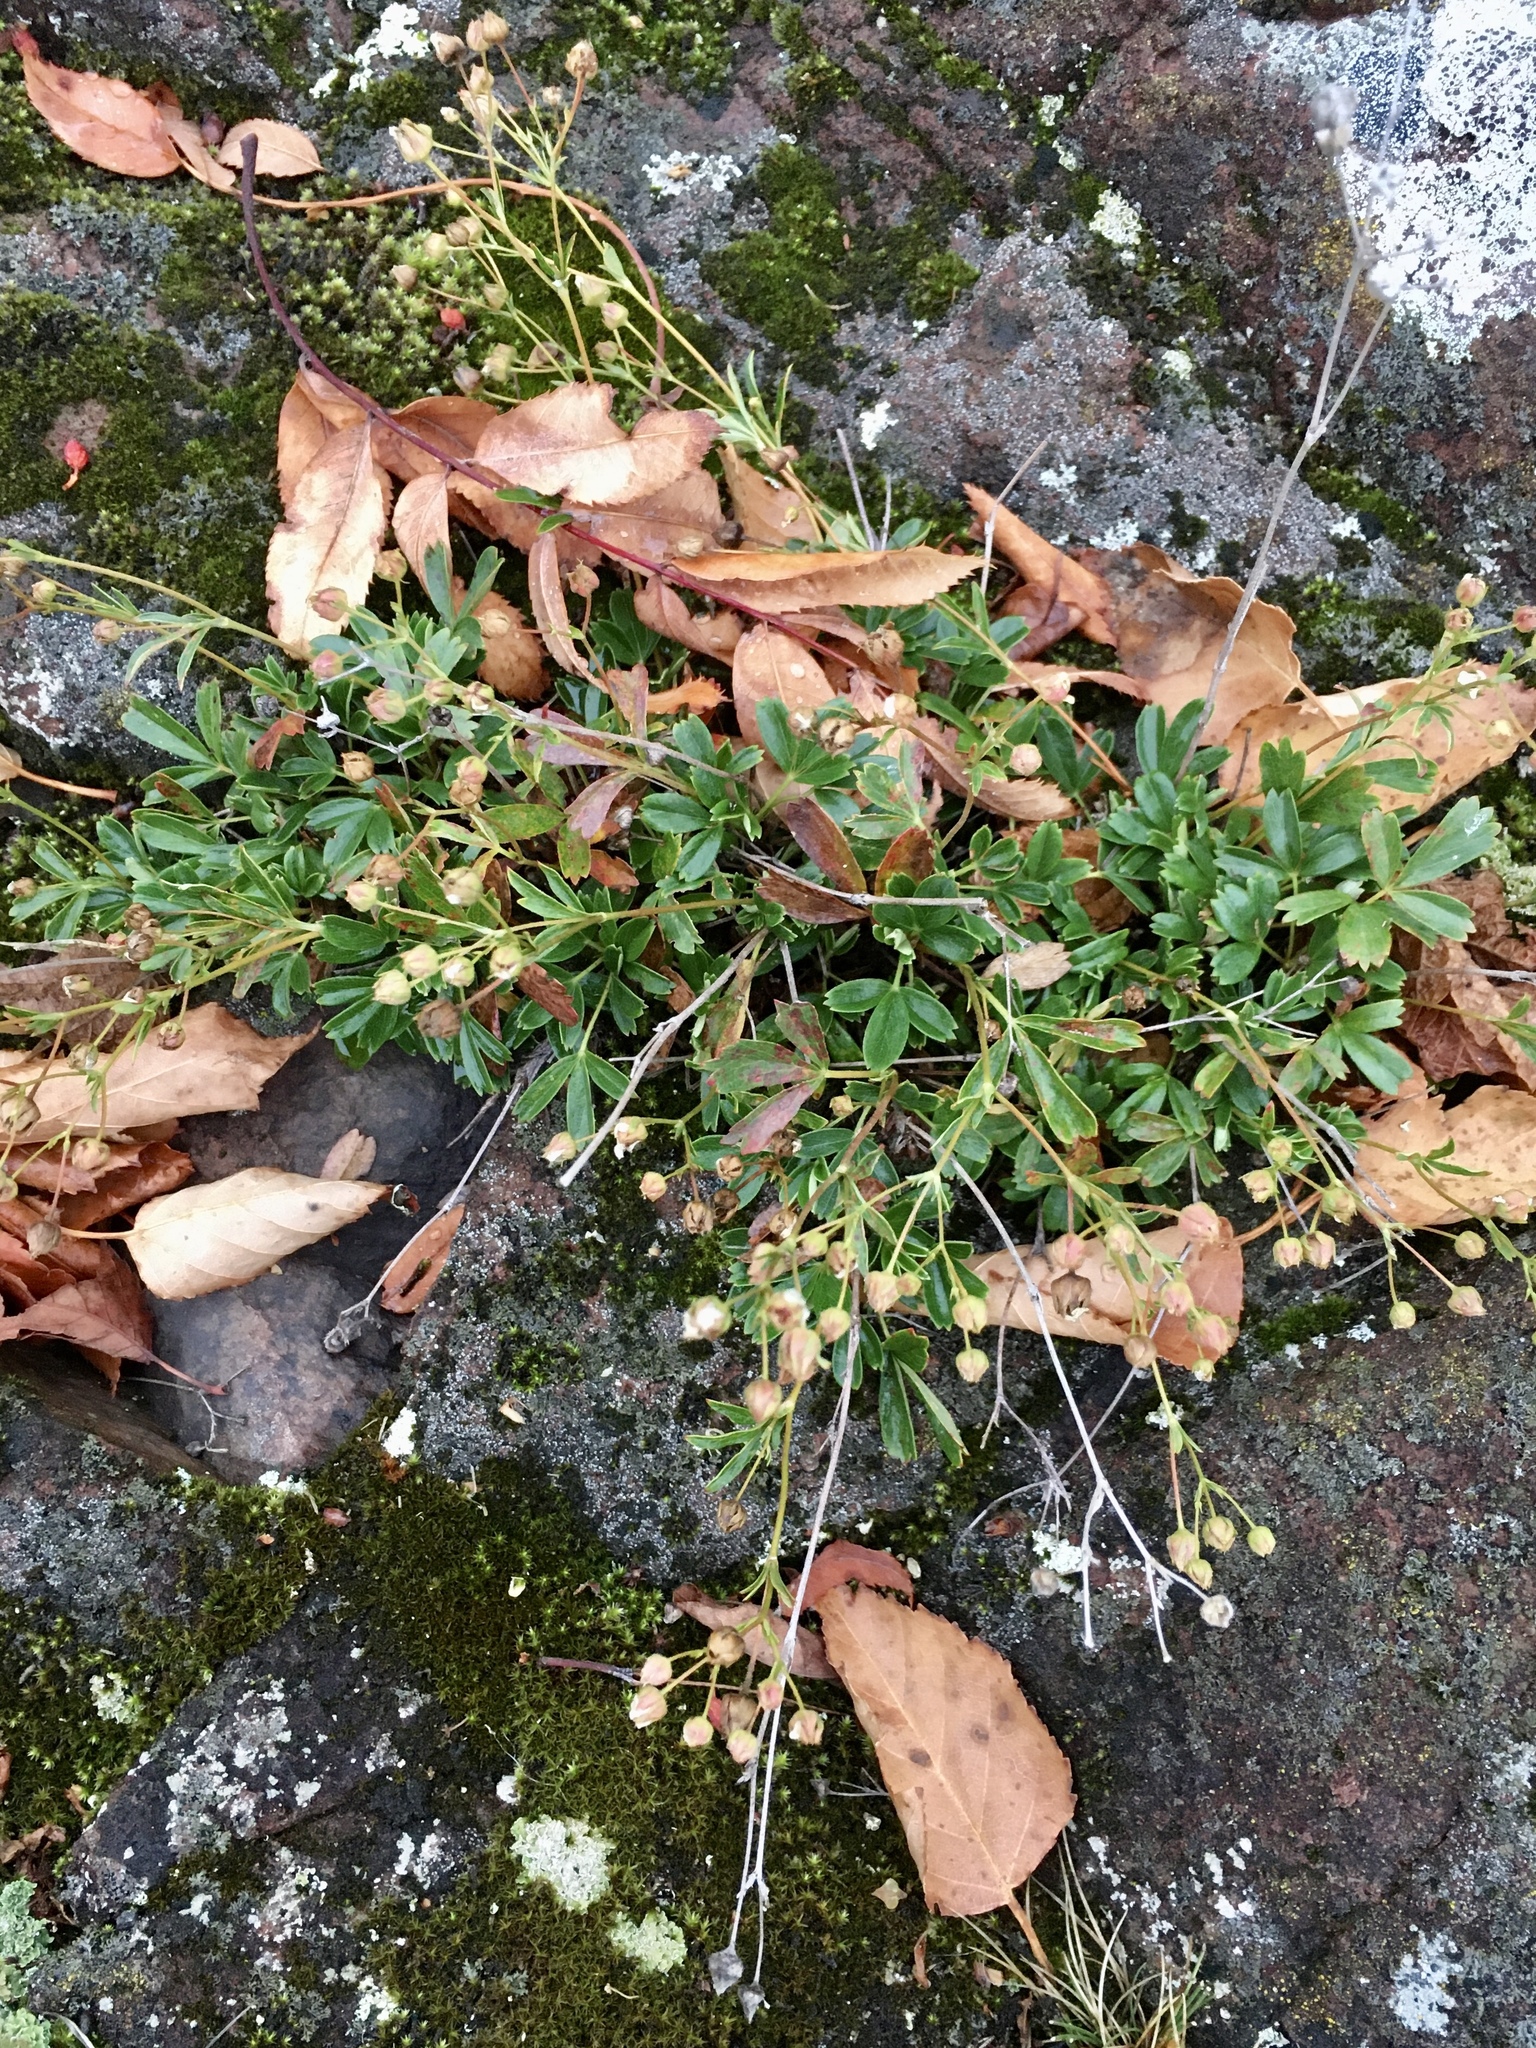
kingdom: Plantae
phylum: Tracheophyta
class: Magnoliopsida
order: Rosales
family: Rosaceae
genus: Sibbaldia
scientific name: Sibbaldia tridentata
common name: Three-toothed cinquefoil
